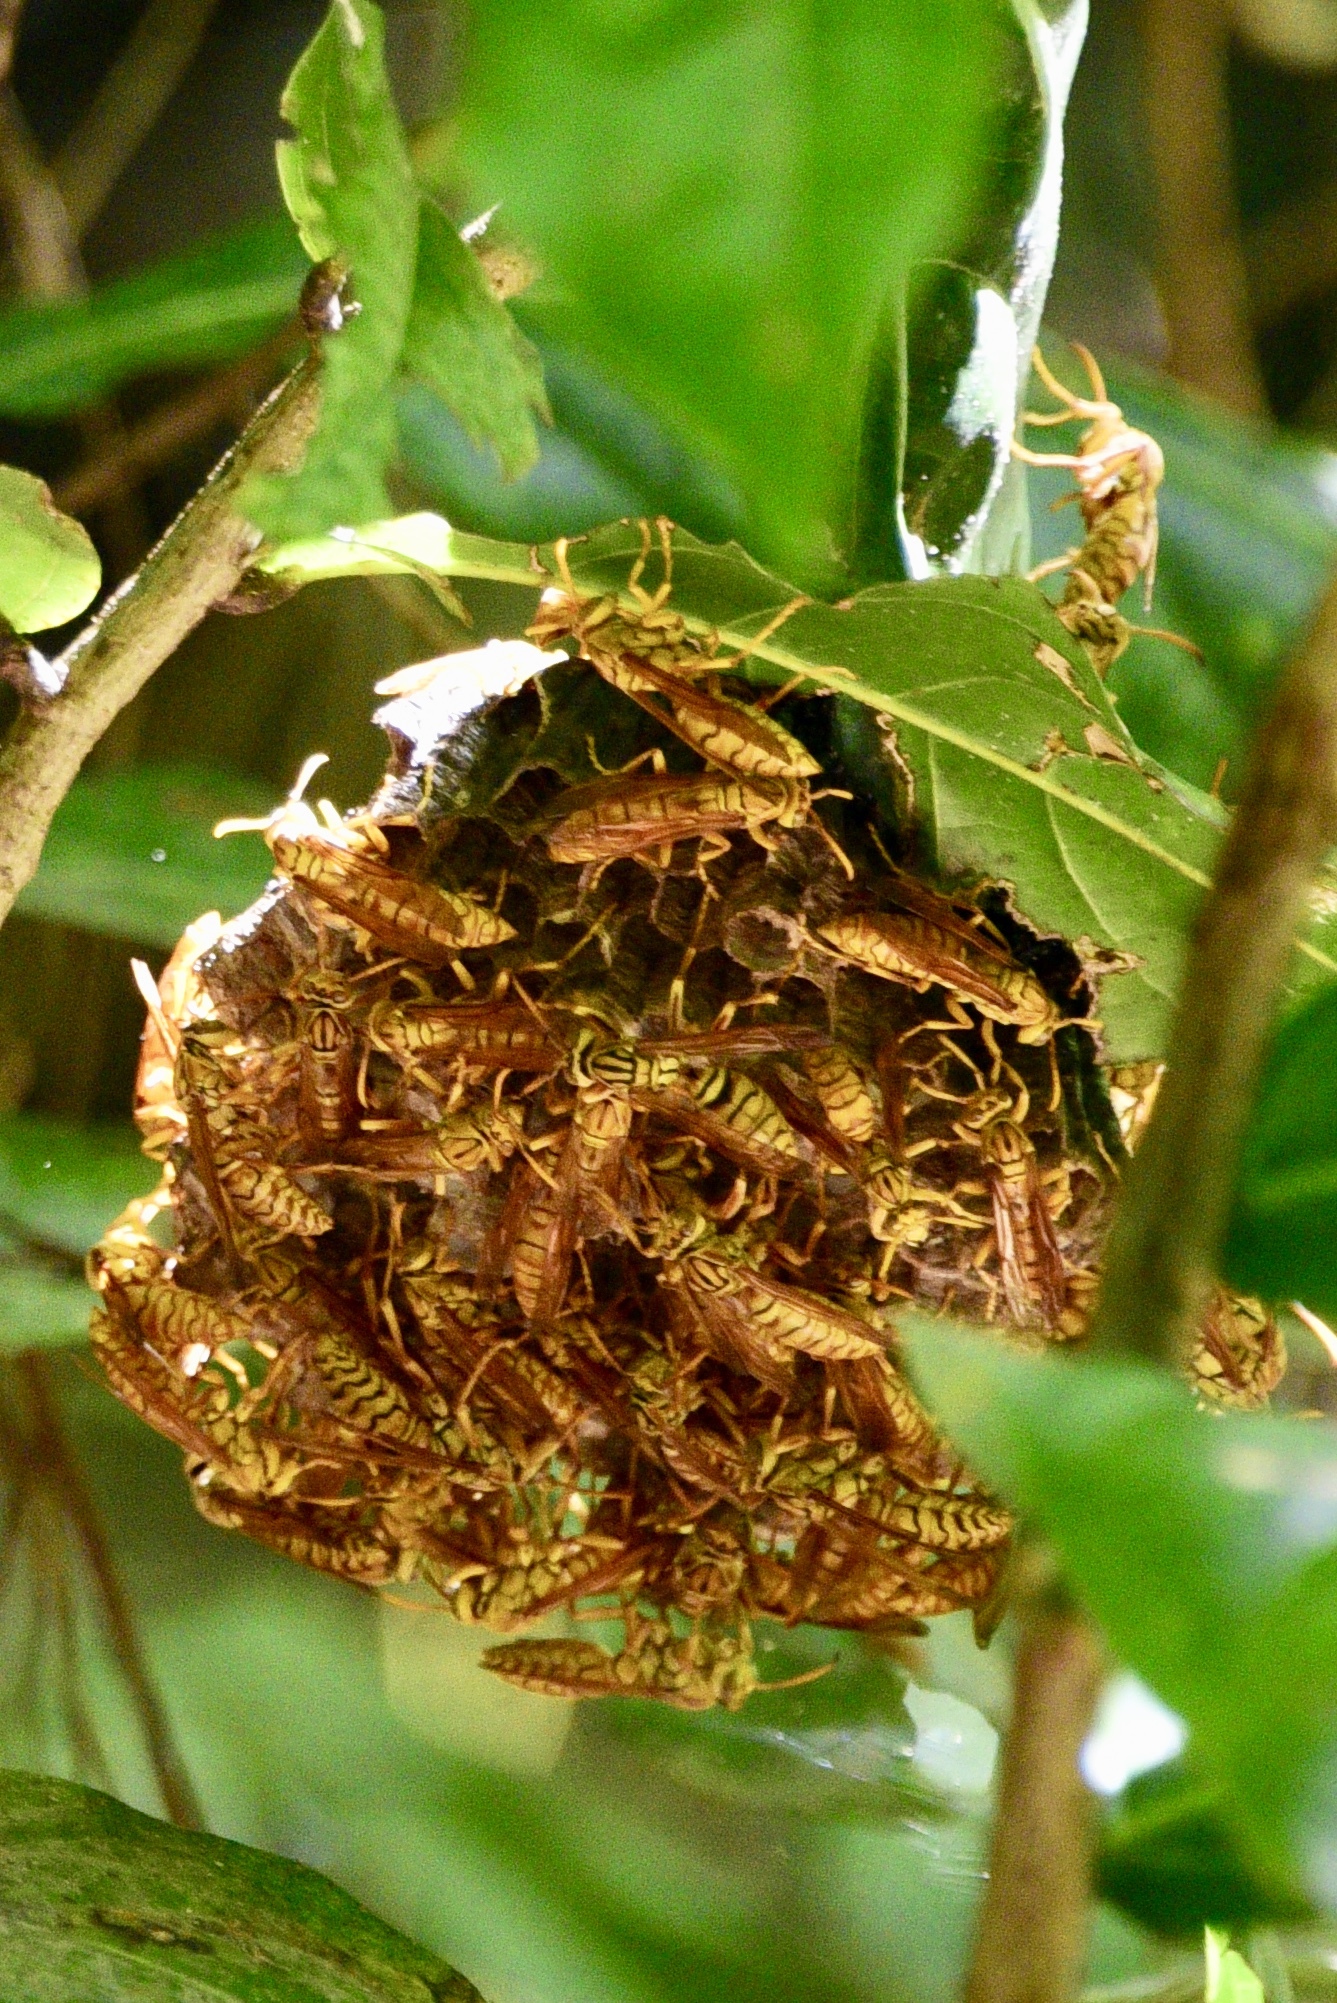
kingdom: Animalia
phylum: Arthropoda
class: Insecta
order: Hymenoptera
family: Eumenidae
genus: Polistes
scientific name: Polistes olivaceus
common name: Paper wasp
